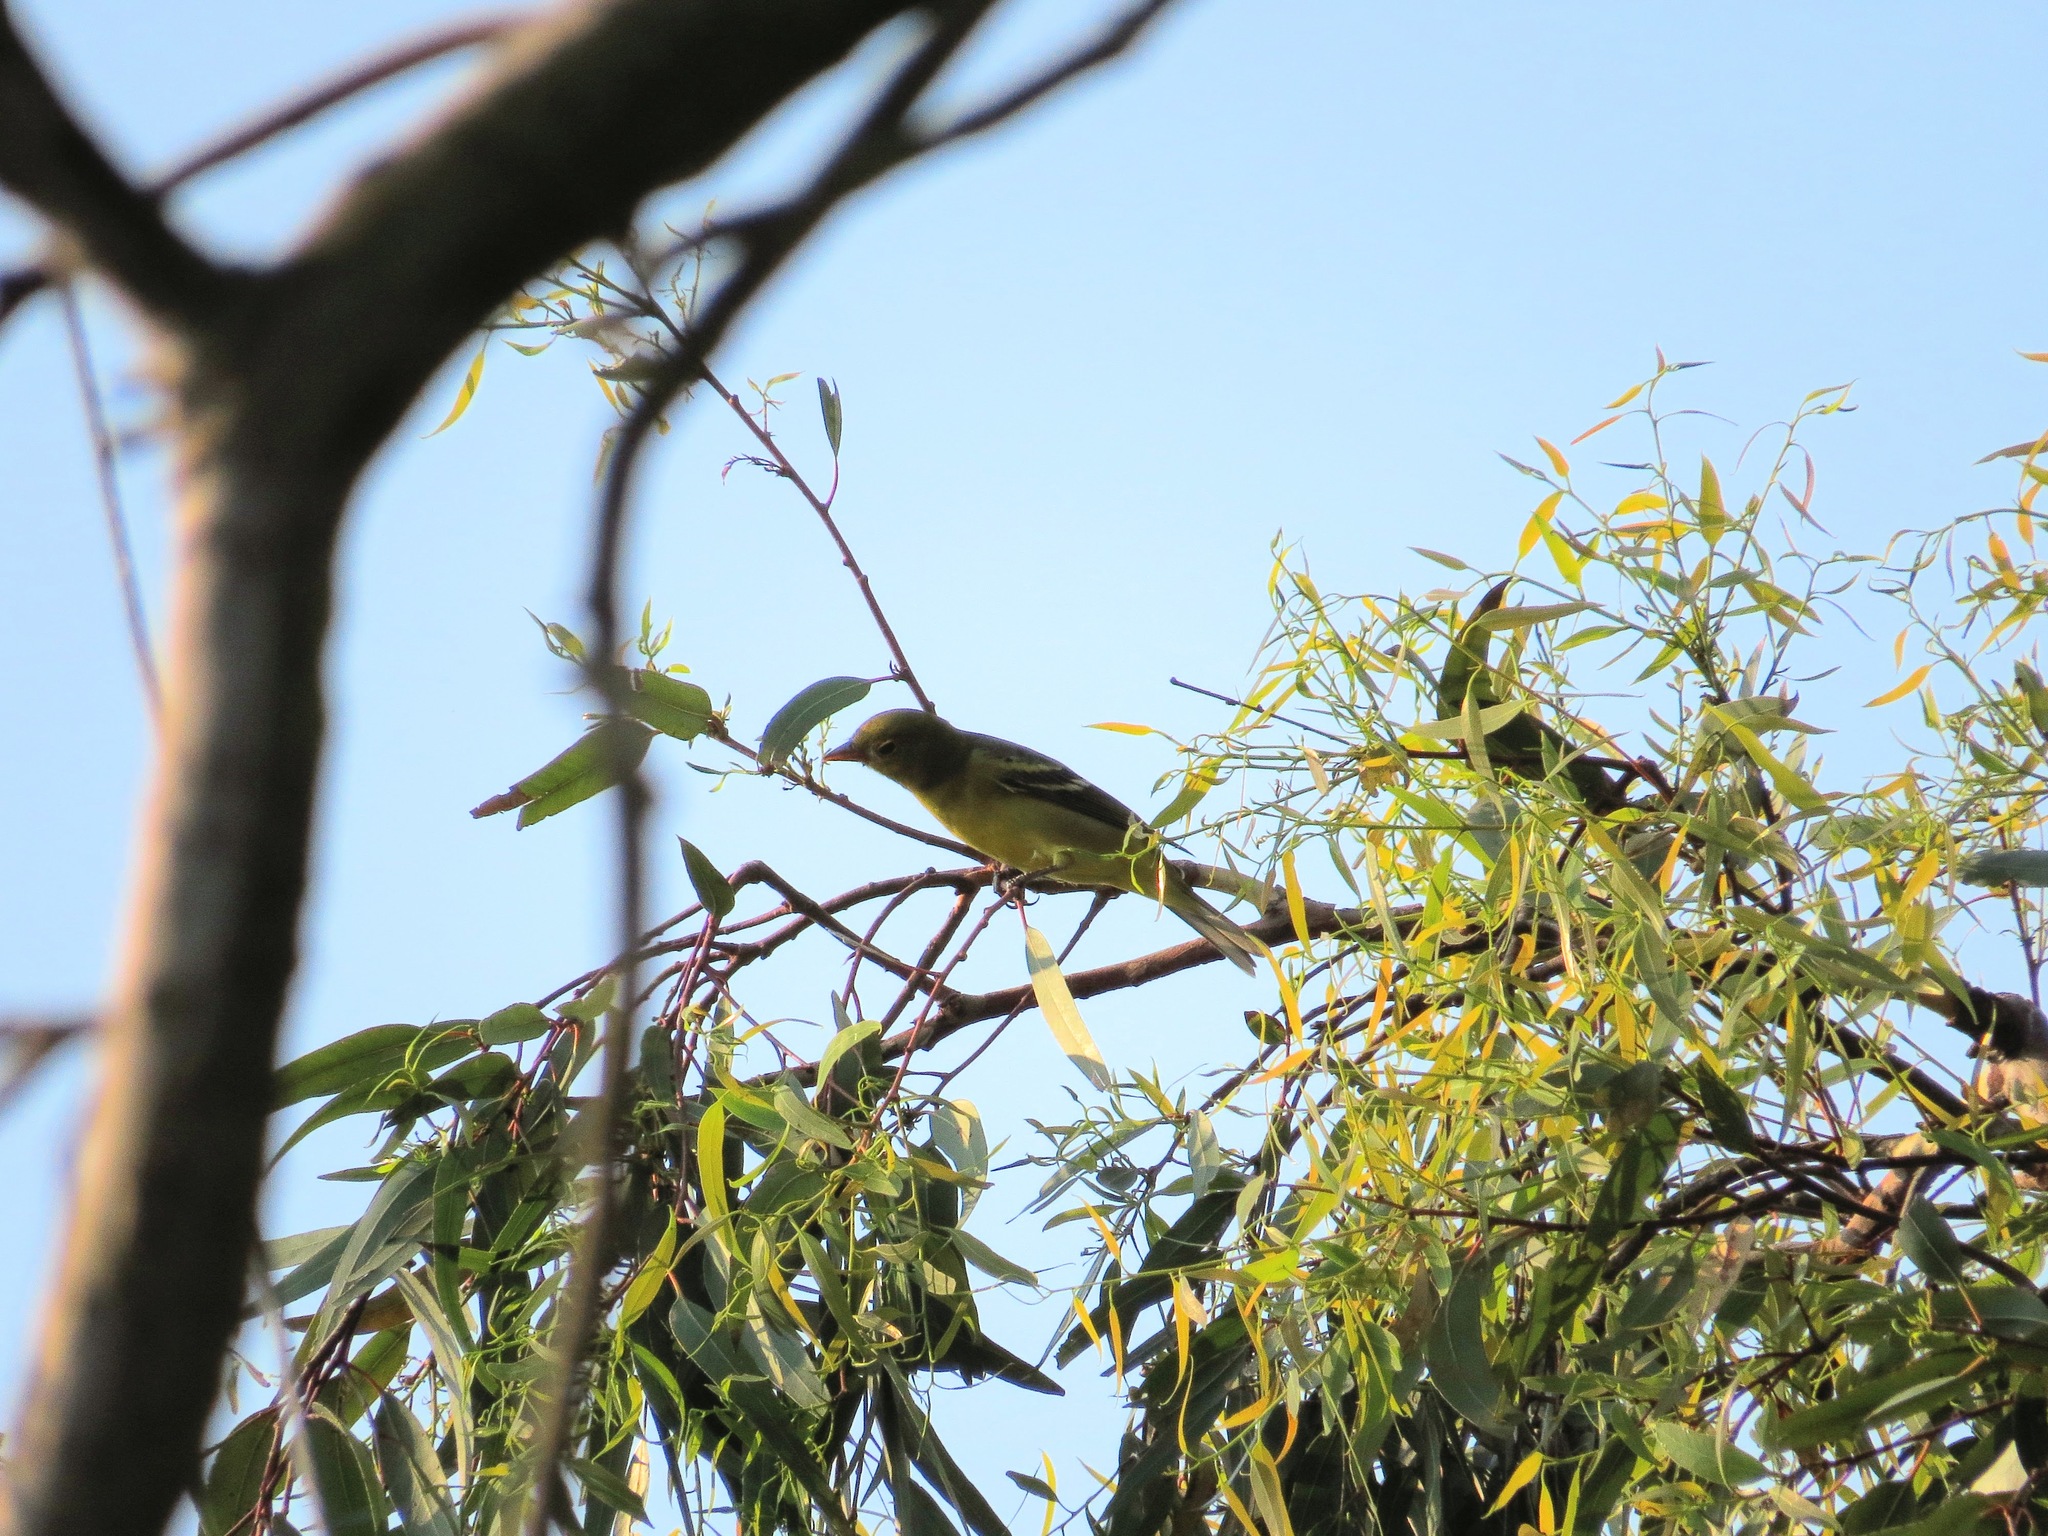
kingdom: Animalia
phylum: Chordata
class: Aves
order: Passeriformes
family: Cardinalidae
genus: Piranga
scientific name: Piranga ludoviciana
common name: Western tanager
